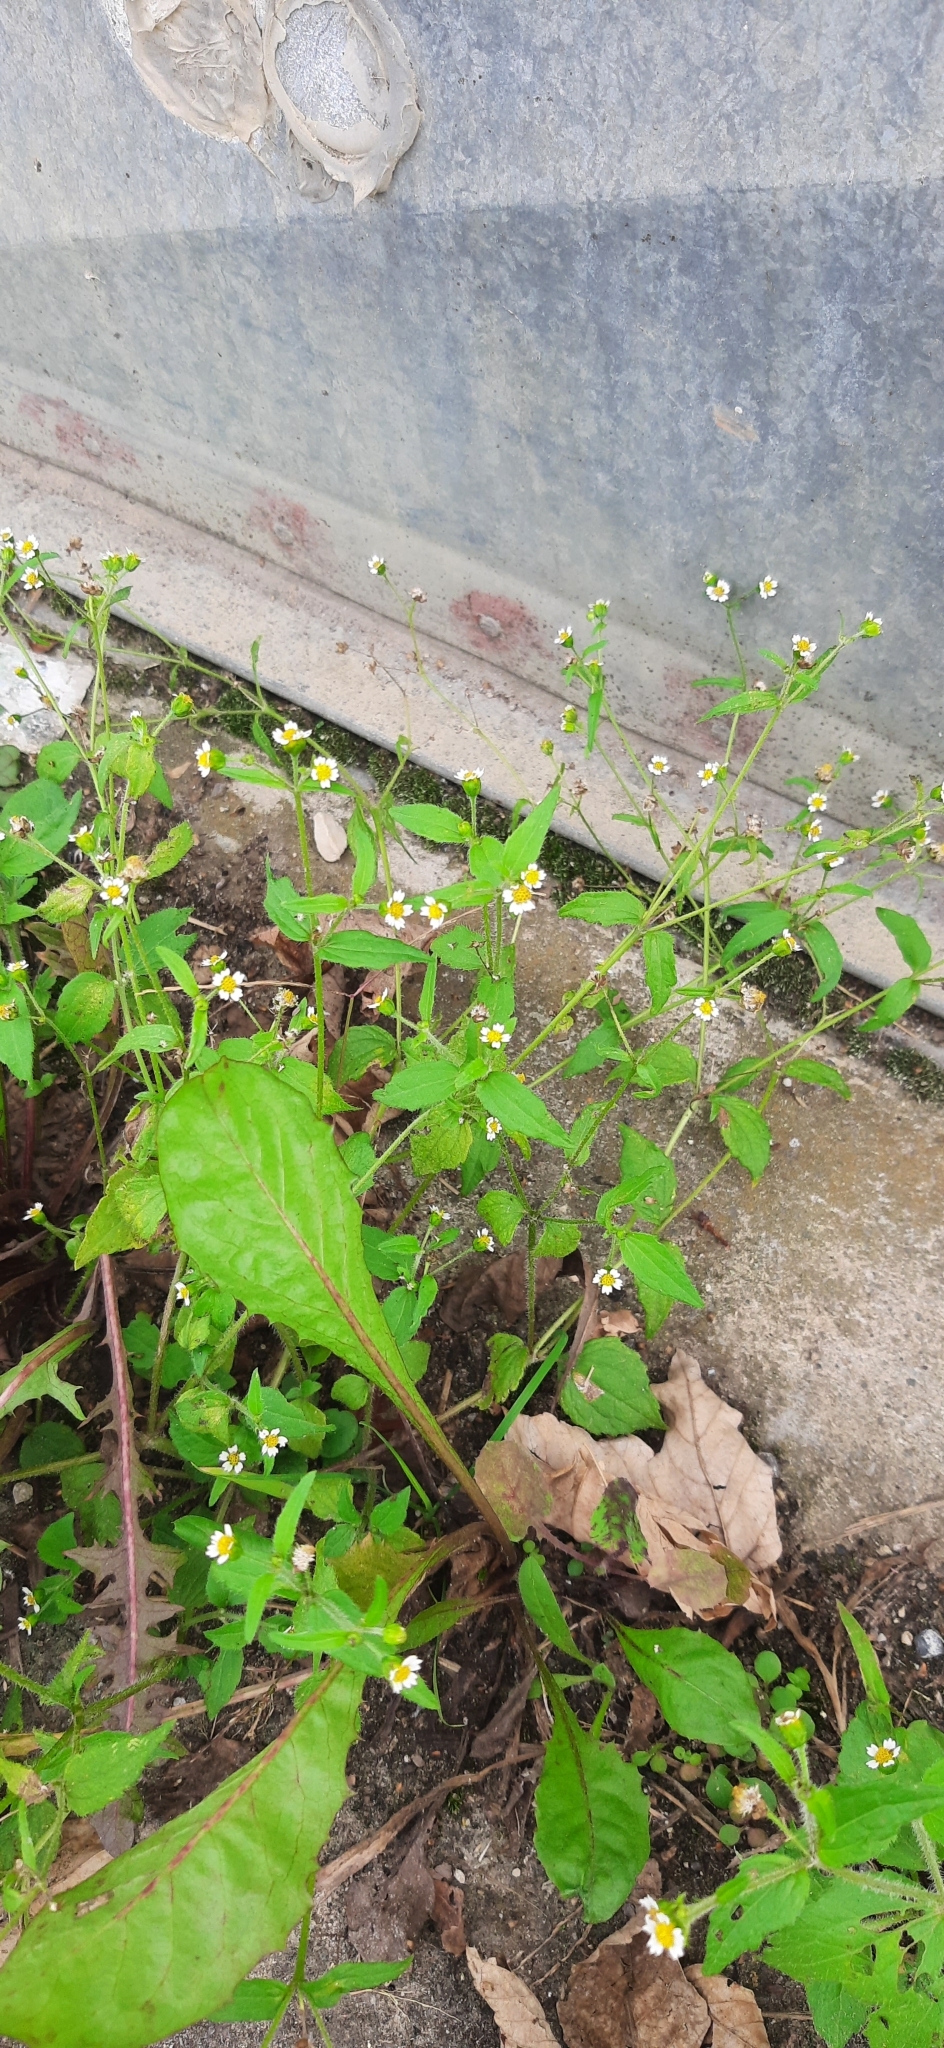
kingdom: Plantae
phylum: Tracheophyta
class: Magnoliopsida
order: Asterales
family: Asteraceae
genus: Galinsoga
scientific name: Galinsoga quadriradiata
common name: Shaggy soldier
